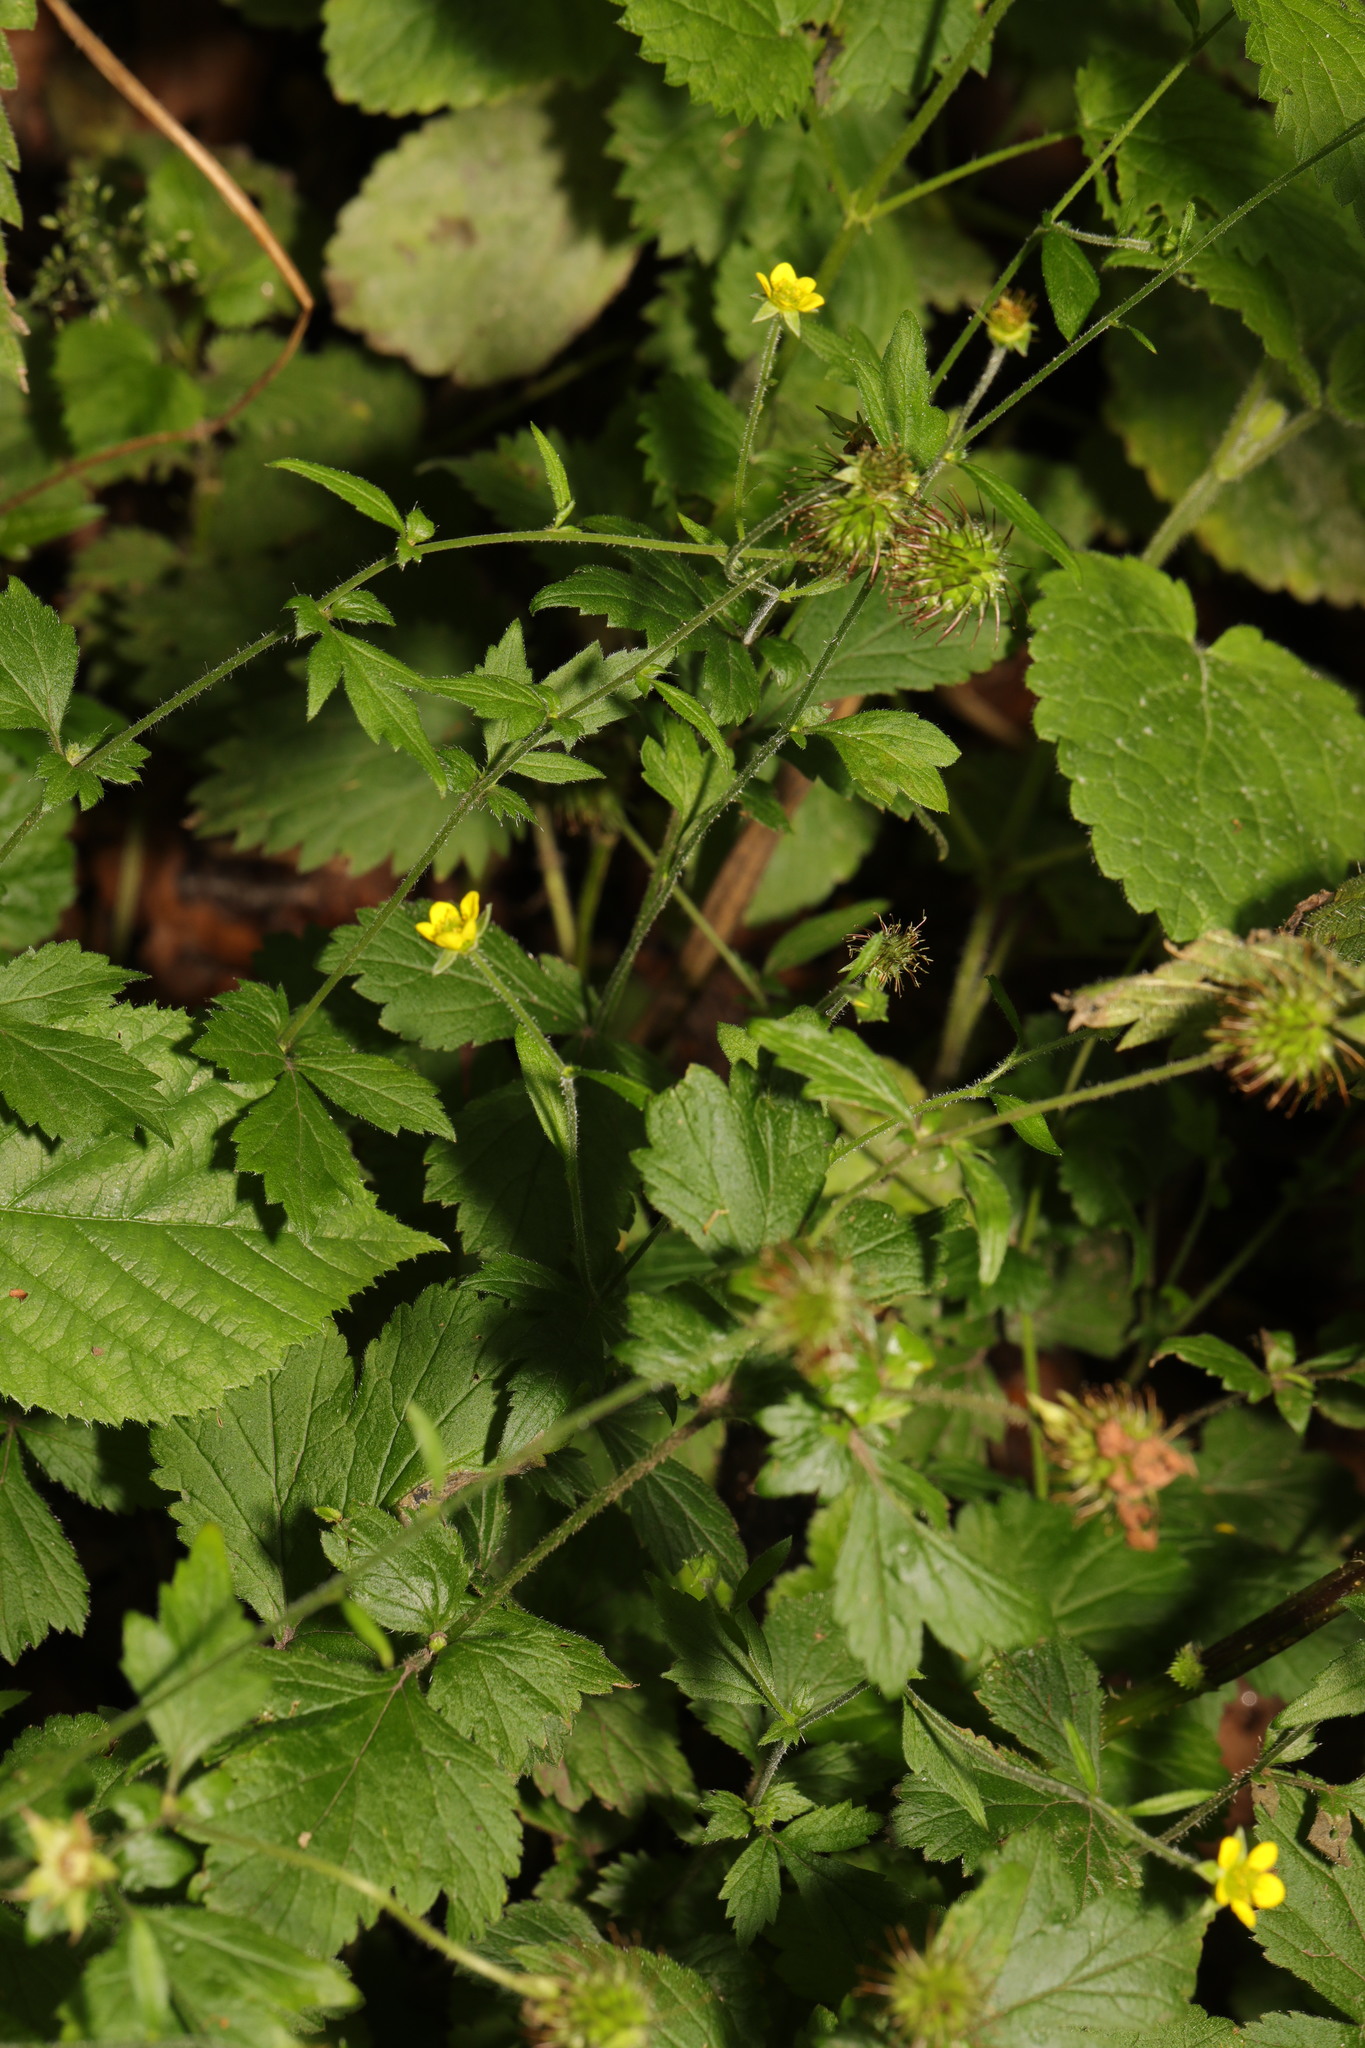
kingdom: Plantae
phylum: Tracheophyta
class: Magnoliopsida
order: Rosales
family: Rosaceae
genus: Geum
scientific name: Geum urbanum
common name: Wood avens
